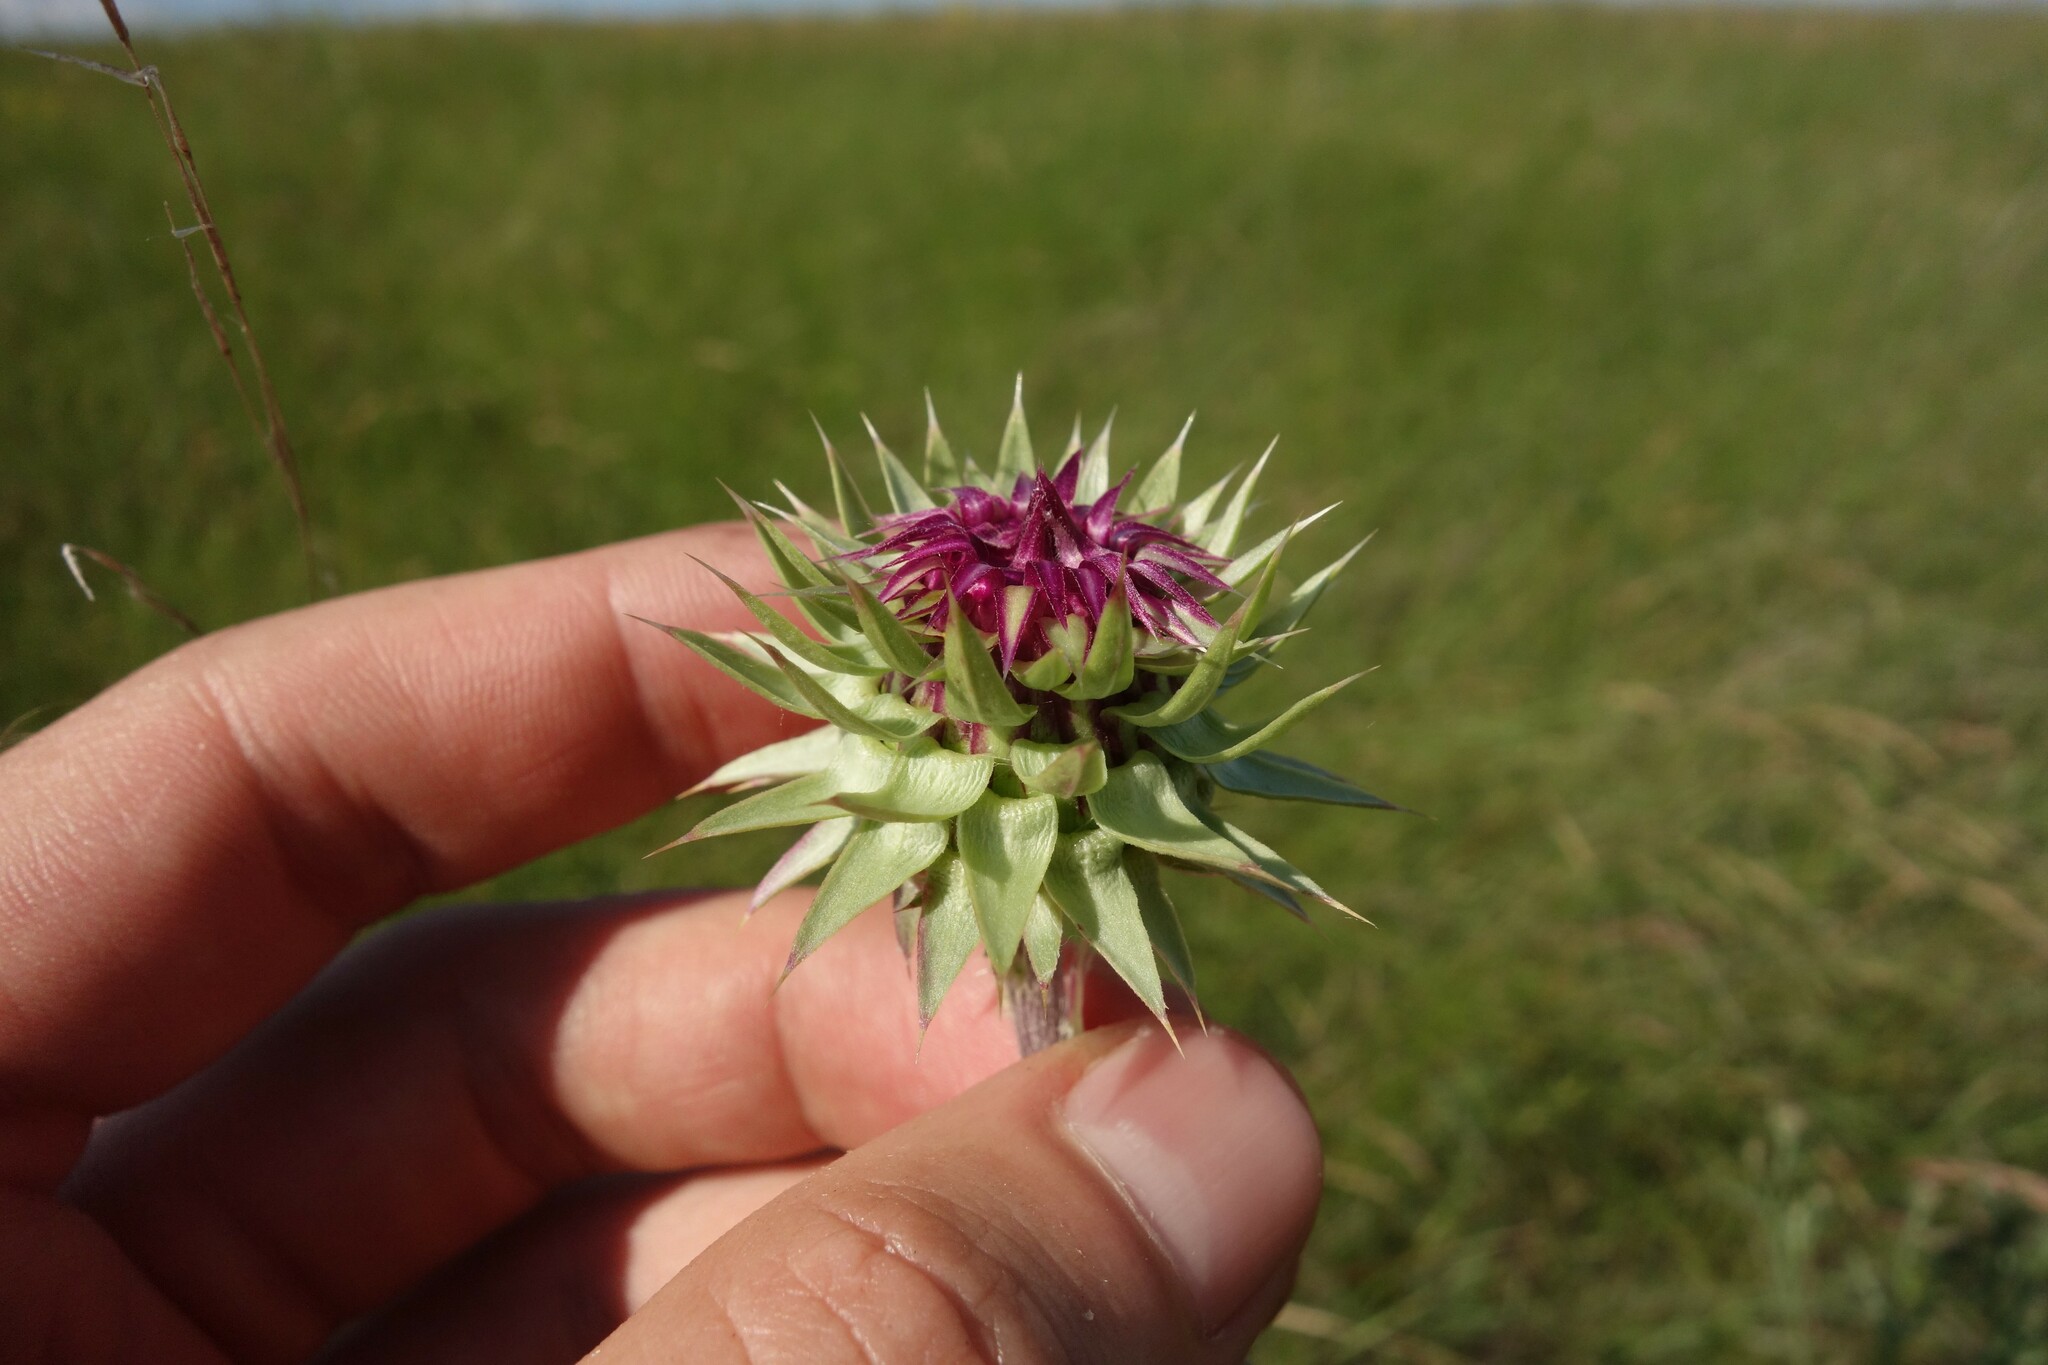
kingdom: Plantae
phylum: Tracheophyta
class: Magnoliopsida
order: Asterales
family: Asteraceae
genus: Carduus
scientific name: Carduus nutans
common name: Musk thistle
